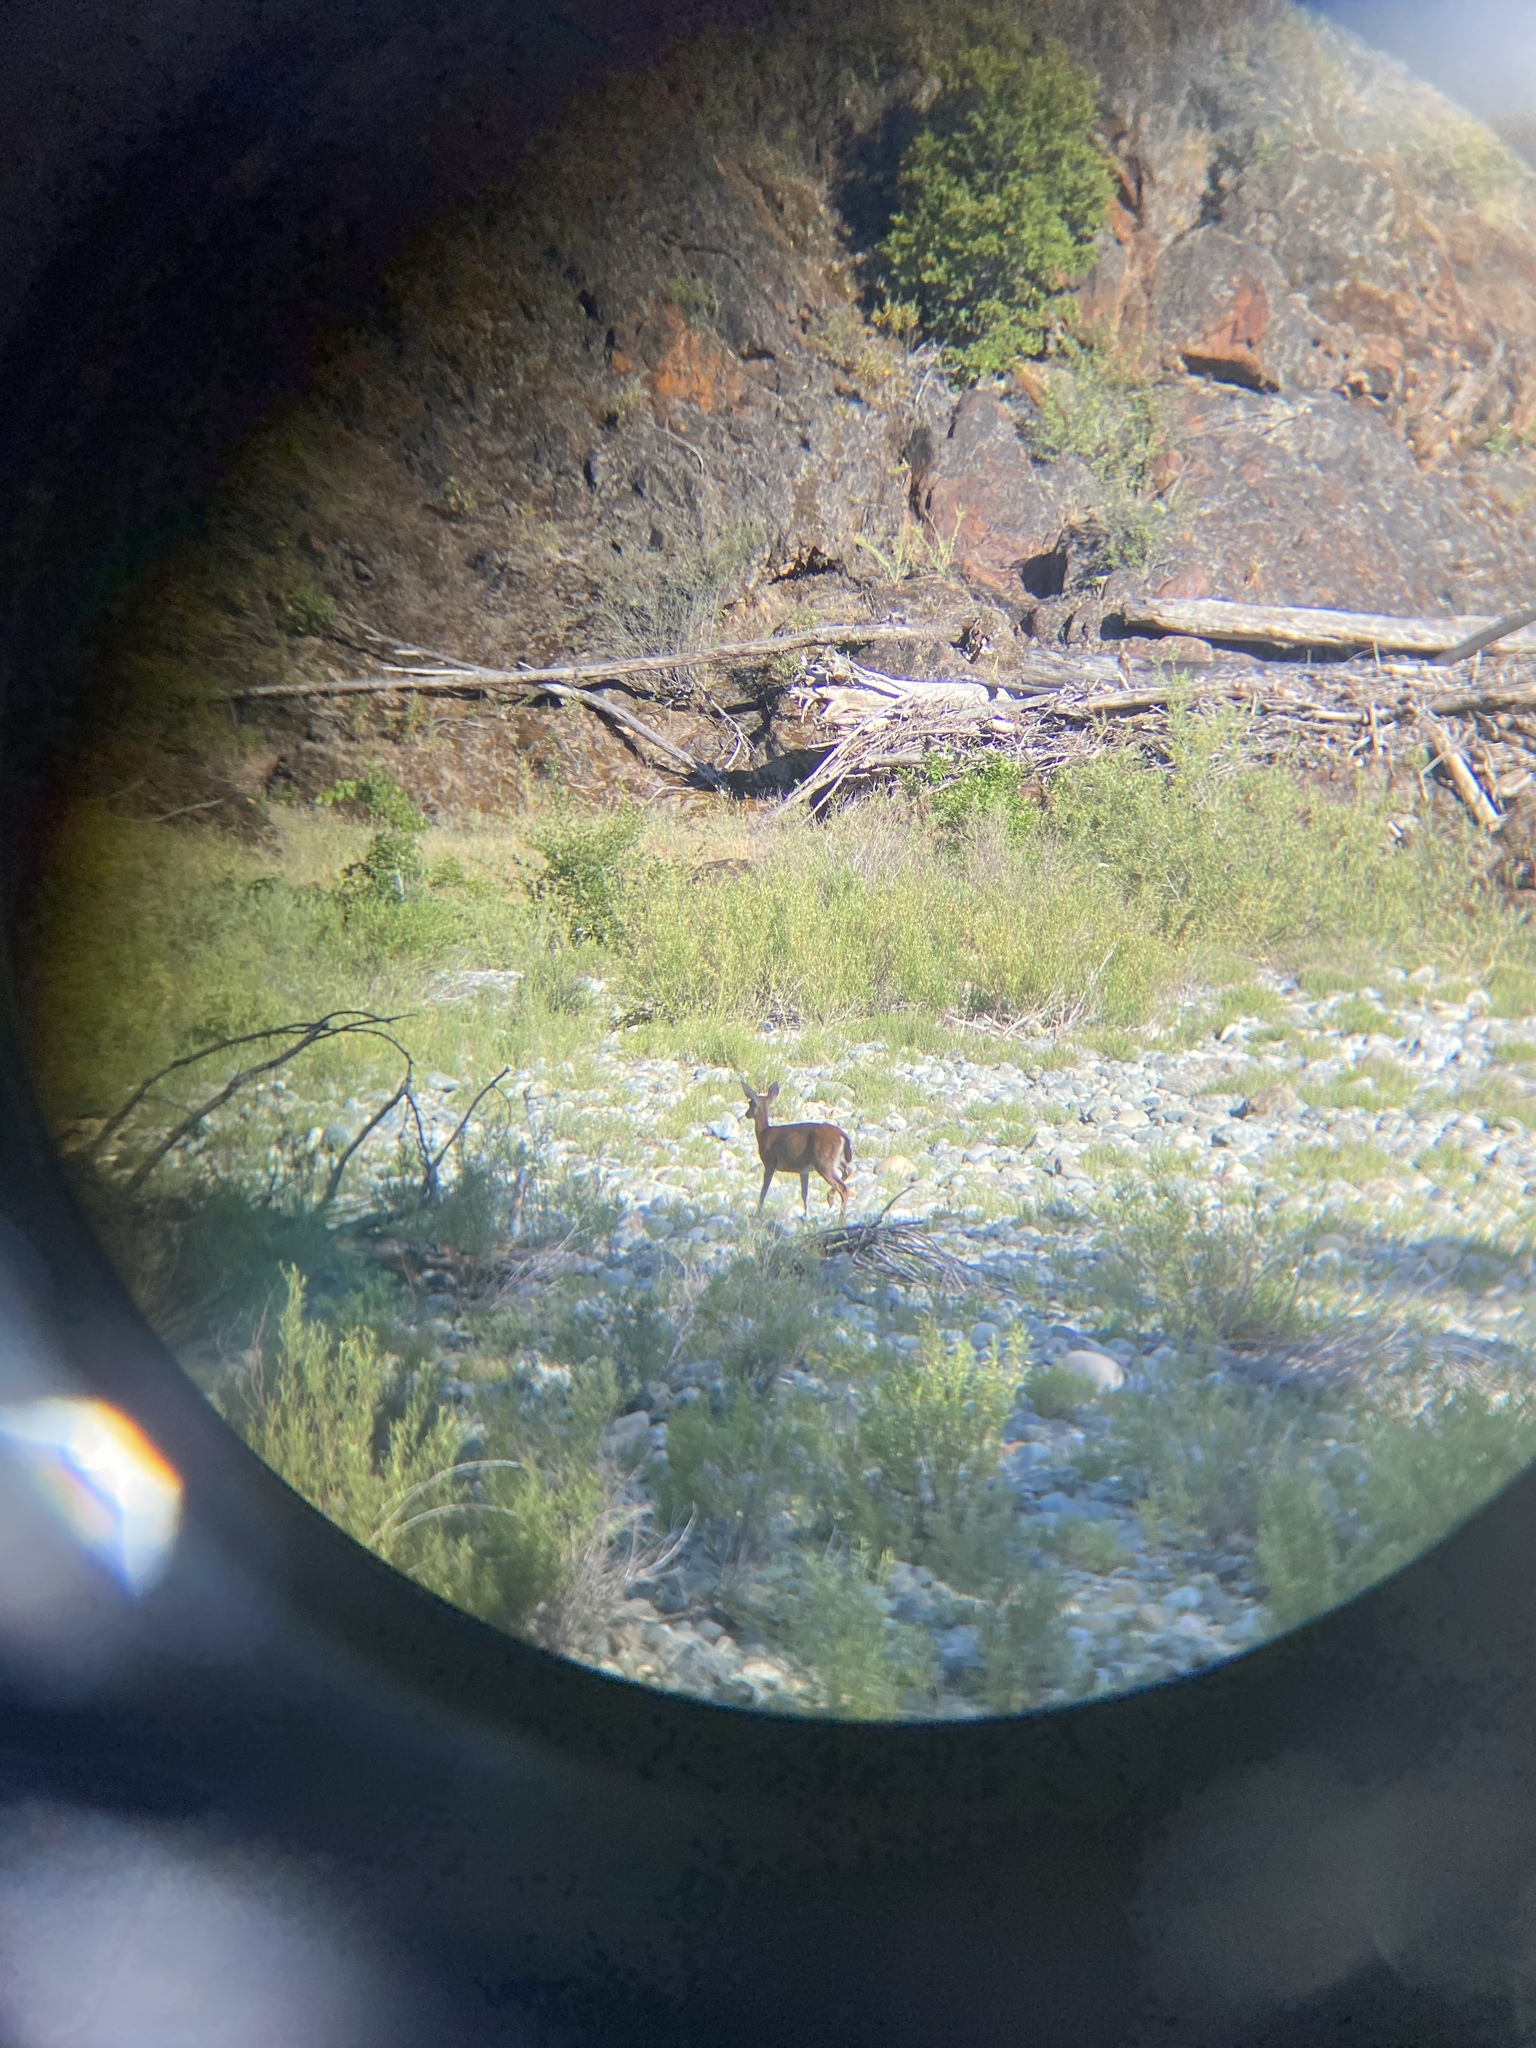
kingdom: Animalia
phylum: Chordata
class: Mammalia
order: Artiodactyla
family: Cervidae
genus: Odocoileus
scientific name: Odocoileus hemionus
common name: Mule deer
